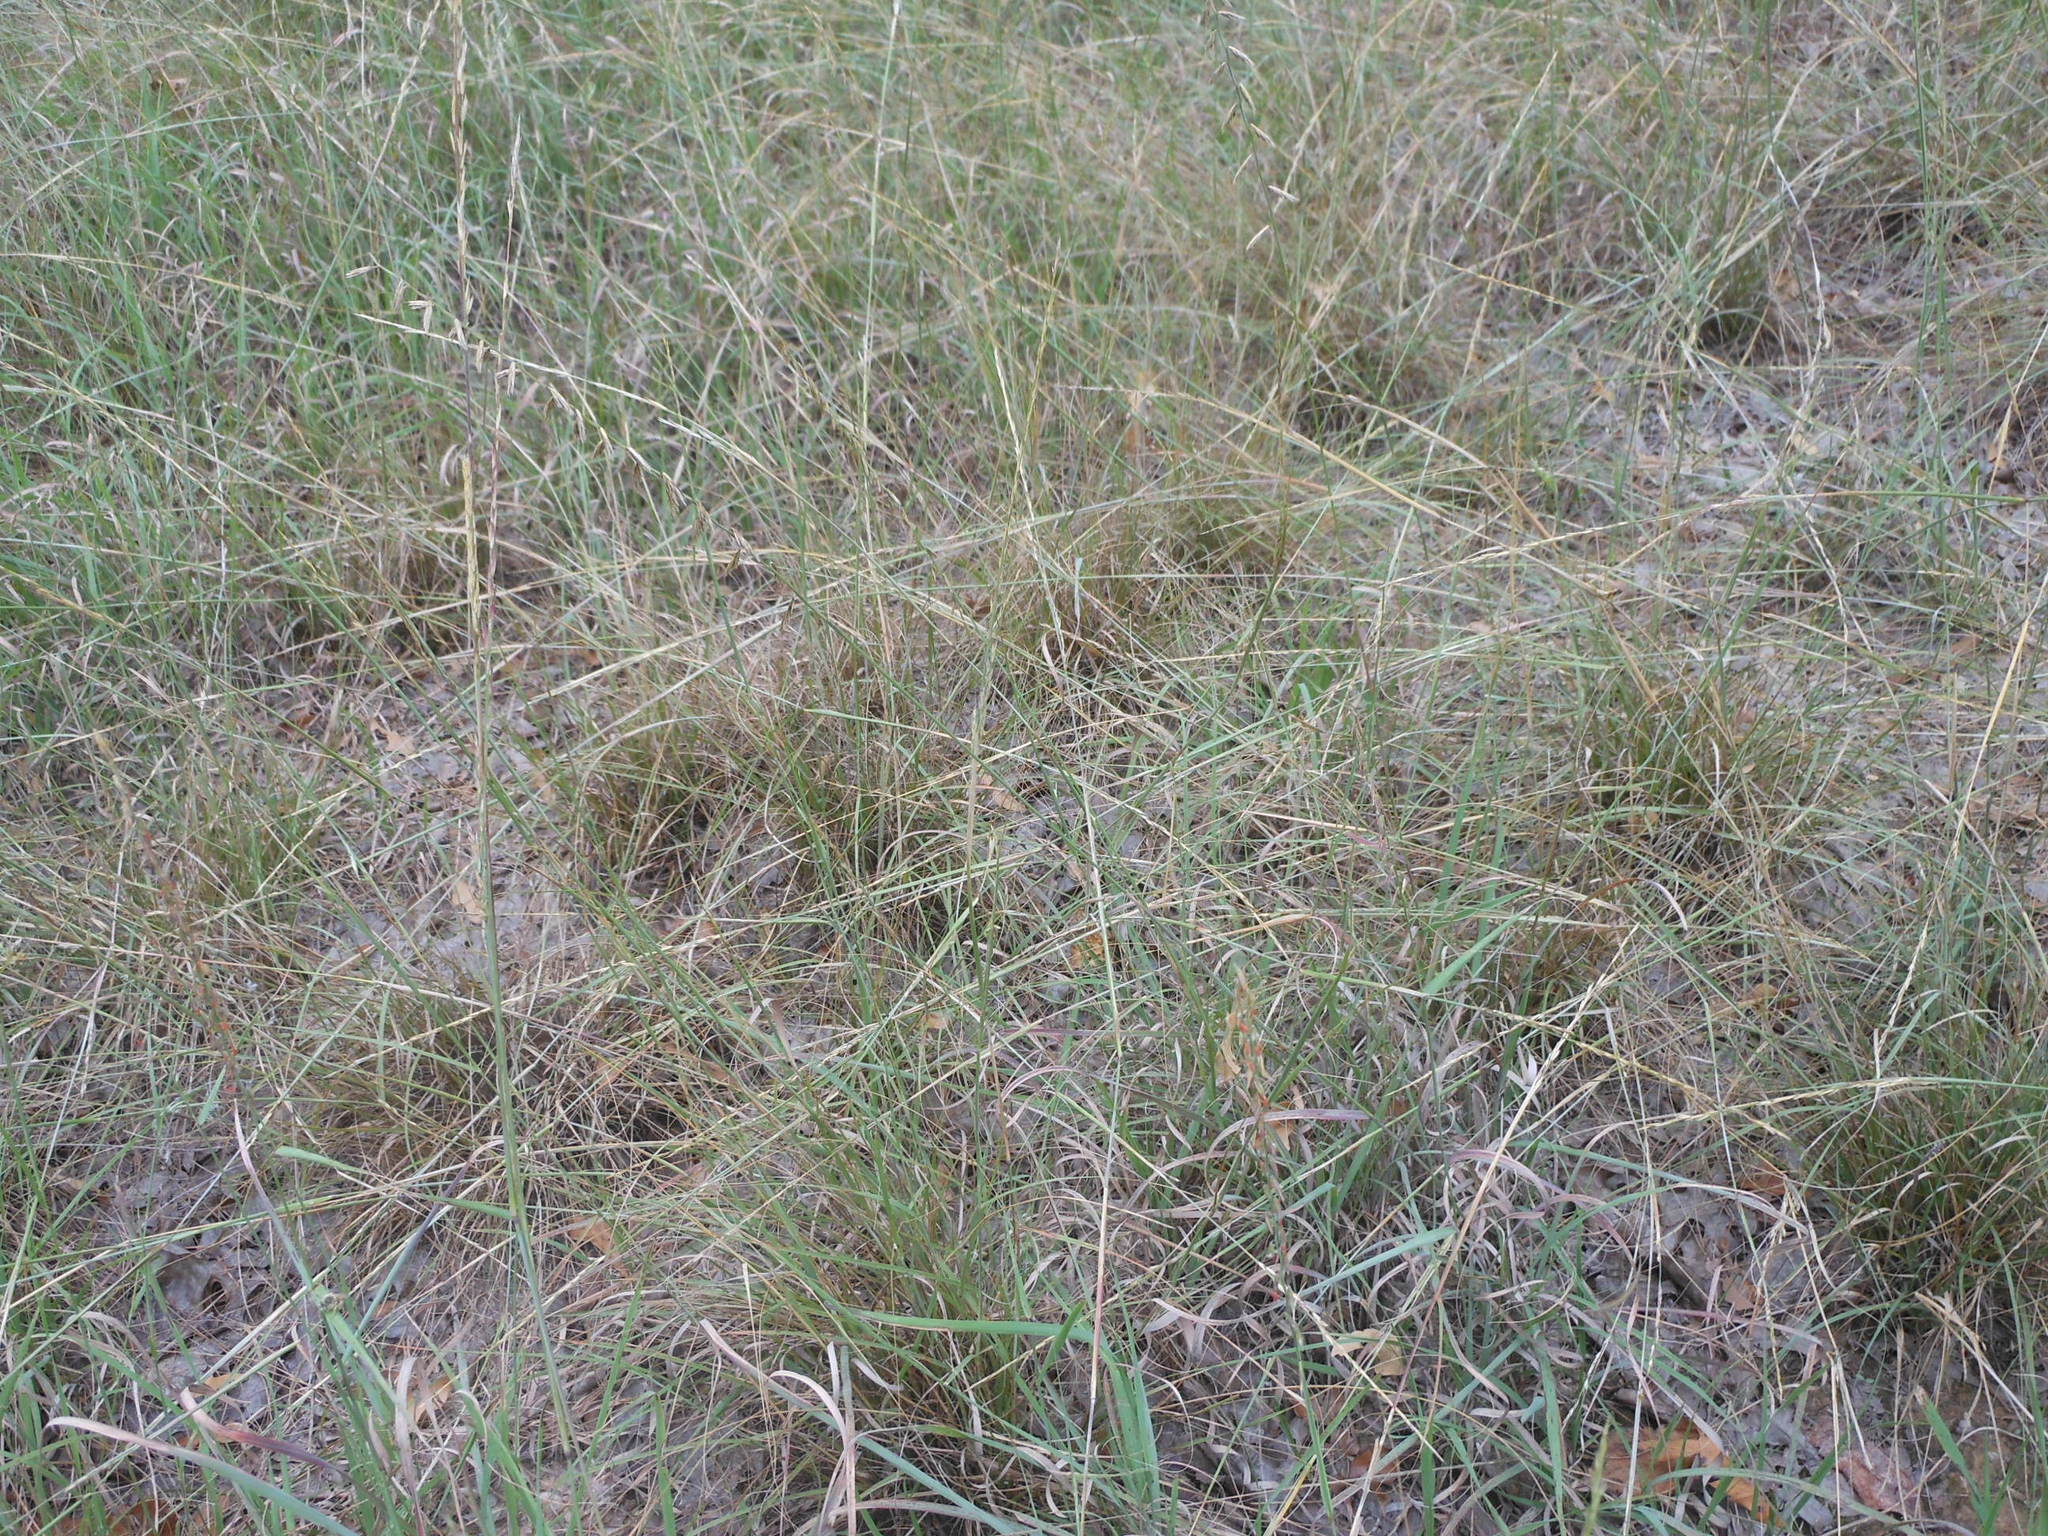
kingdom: Plantae
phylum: Tracheophyta
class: Liliopsida
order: Poales
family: Poaceae
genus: Bouteloua
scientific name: Bouteloua curtipendula
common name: Side-oats grama
